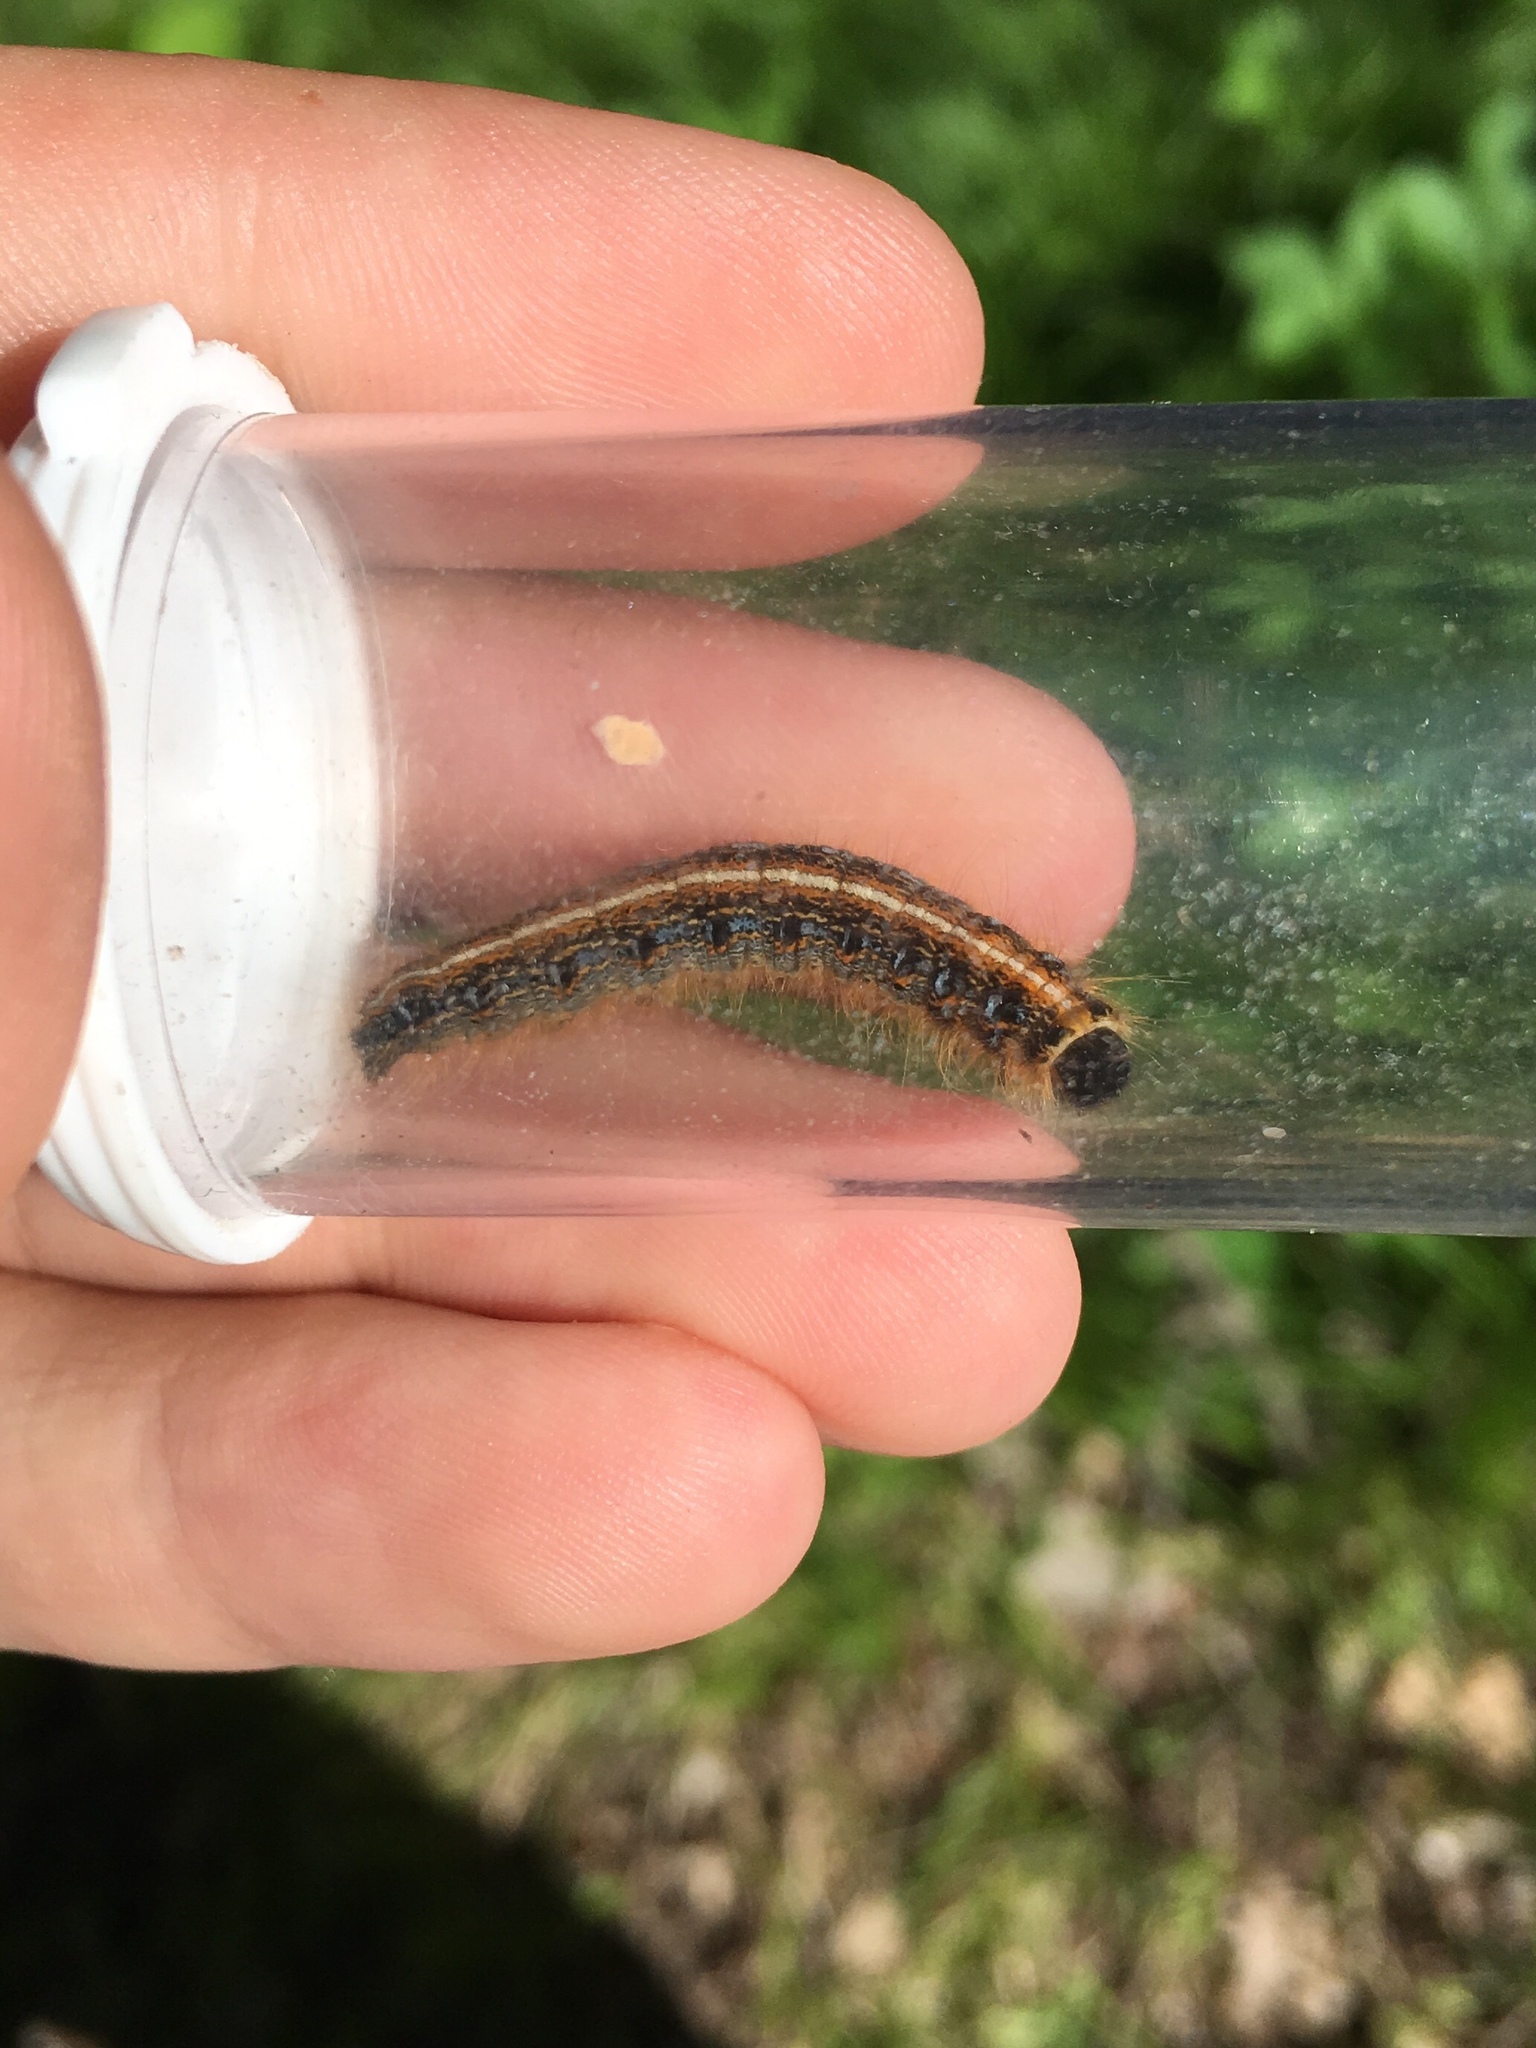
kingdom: Animalia
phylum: Arthropoda
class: Insecta
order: Lepidoptera
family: Lasiocampidae
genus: Malacosoma
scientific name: Malacosoma americana
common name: Eastern tent caterpillar moth
